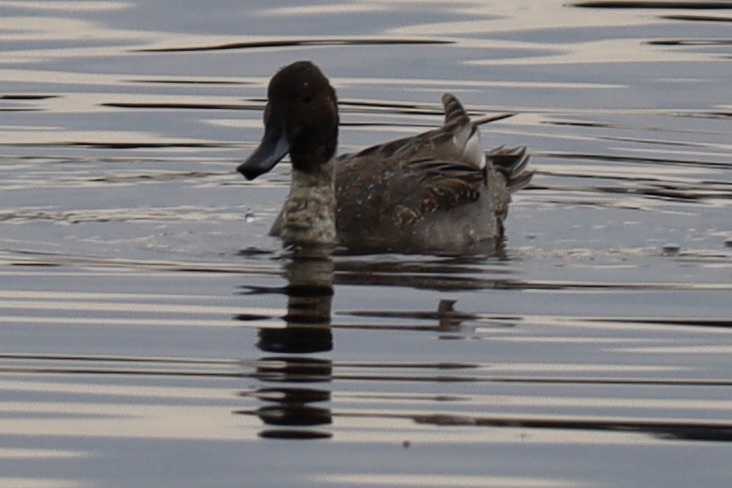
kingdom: Animalia
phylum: Chordata
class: Aves
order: Anseriformes
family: Anatidae
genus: Anas
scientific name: Anas acuta
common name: Northern pintail
